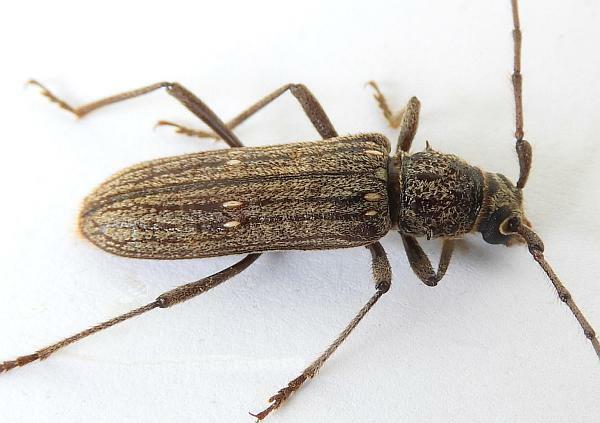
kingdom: Animalia
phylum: Arthropoda
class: Insecta
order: Coleoptera
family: Cerambycidae
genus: Eburia
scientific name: Eburia linsleyi
